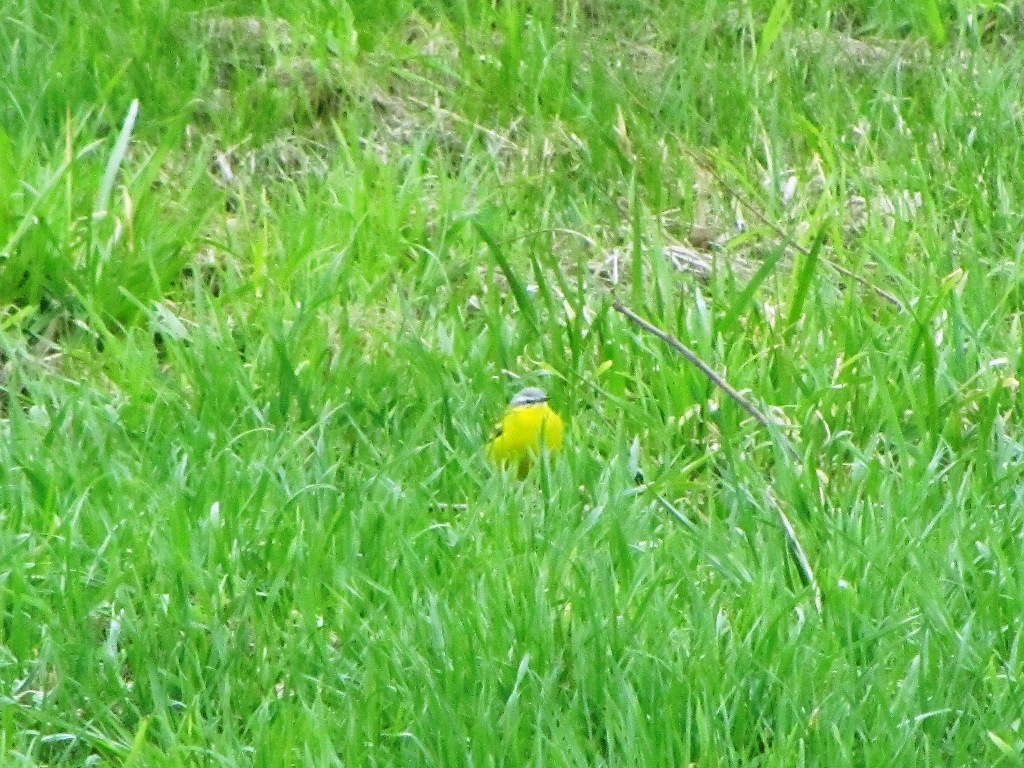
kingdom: Animalia
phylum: Chordata
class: Aves
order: Passeriformes
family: Motacillidae
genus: Motacilla
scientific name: Motacilla flava
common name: Western yellow wagtail
